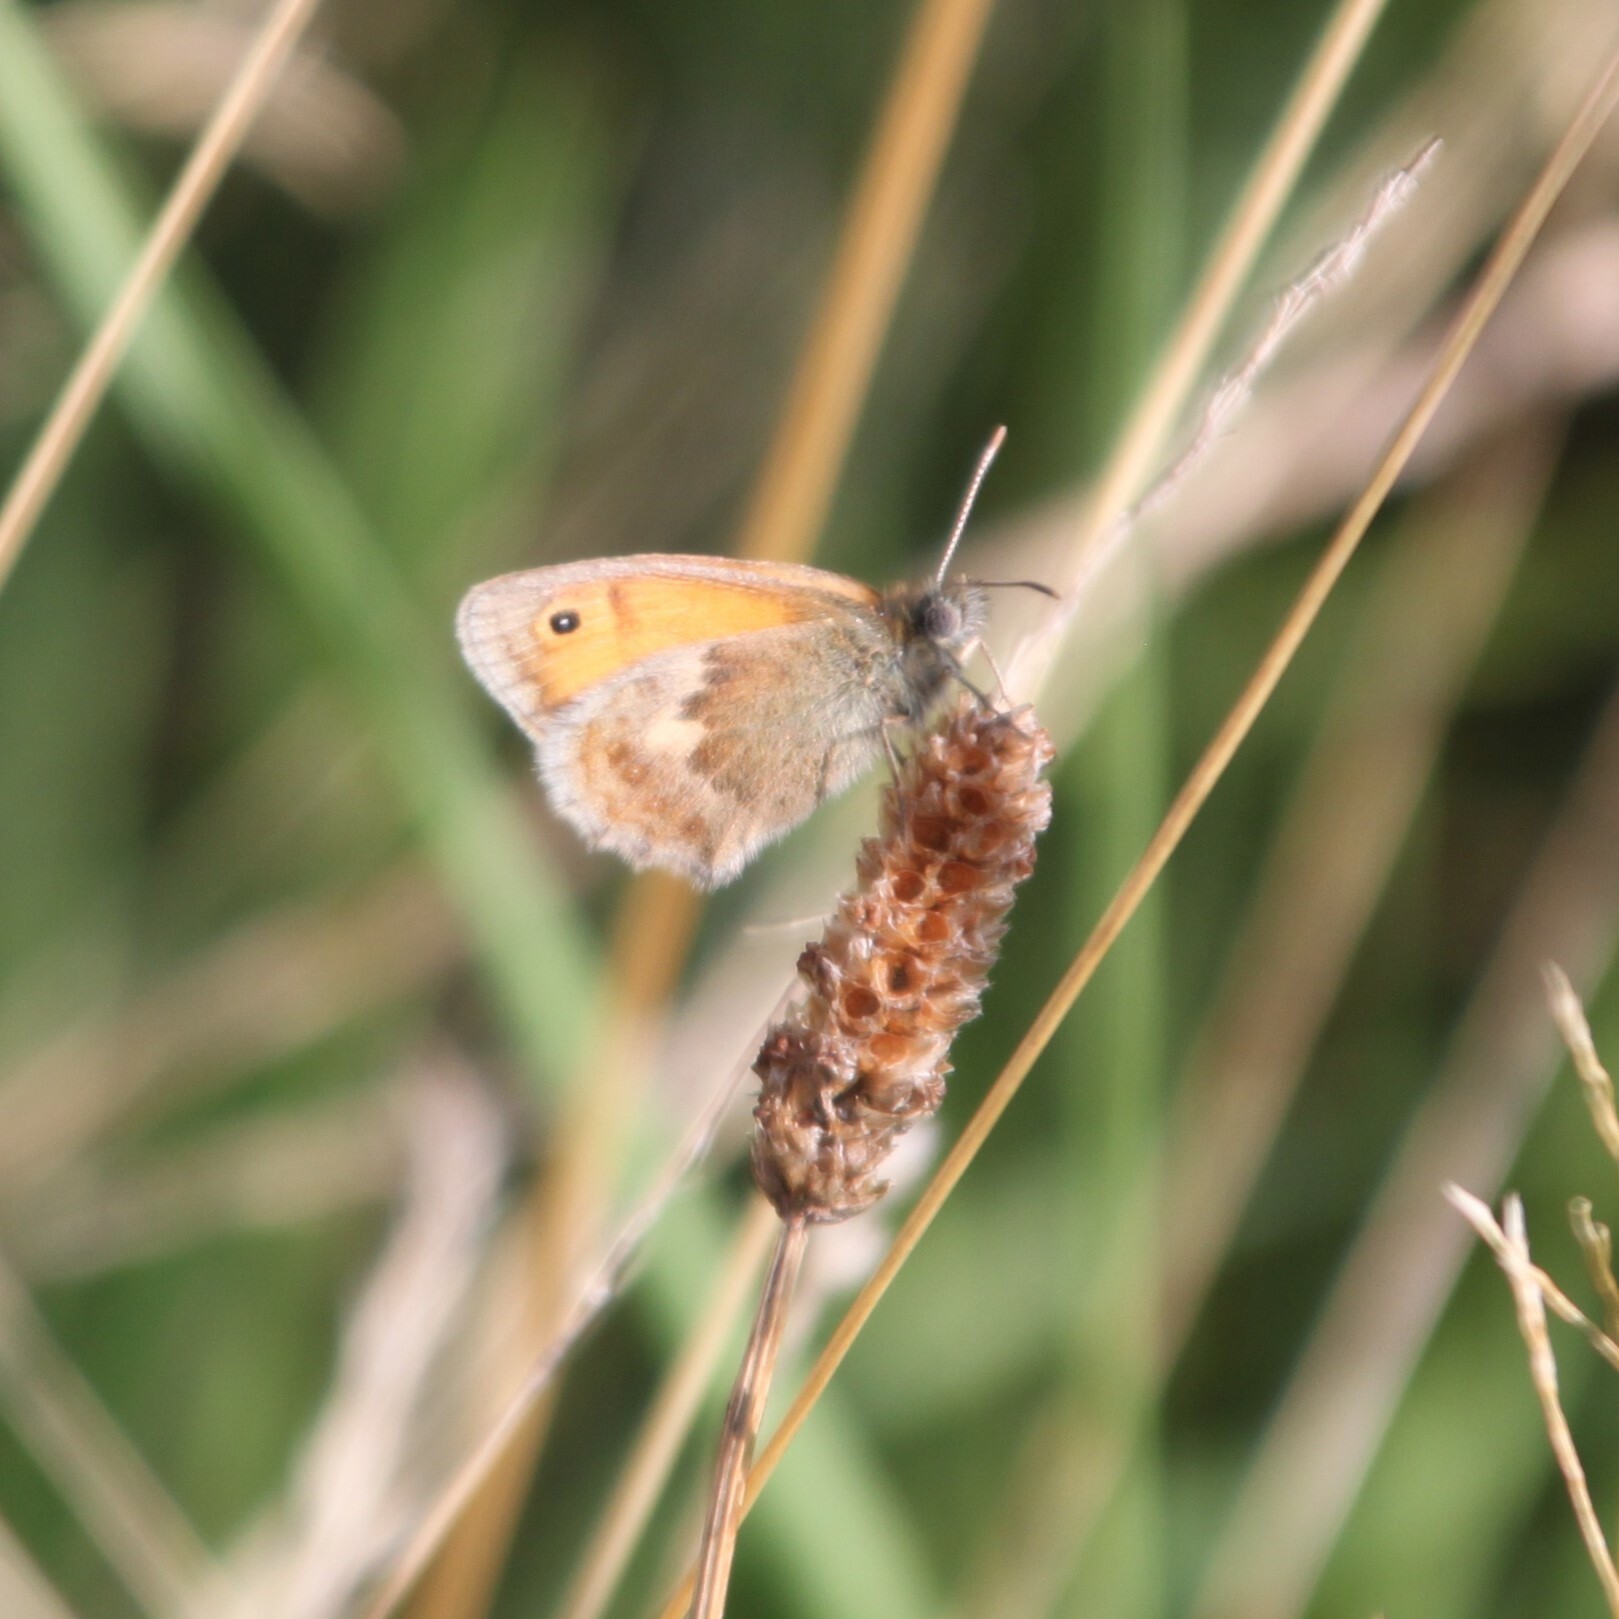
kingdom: Animalia
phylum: Arthropoda
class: Insecta
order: Lepidoptera
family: Nymphalidae
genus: Coenonympha
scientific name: Coenonympha pamphilus
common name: Small heath
